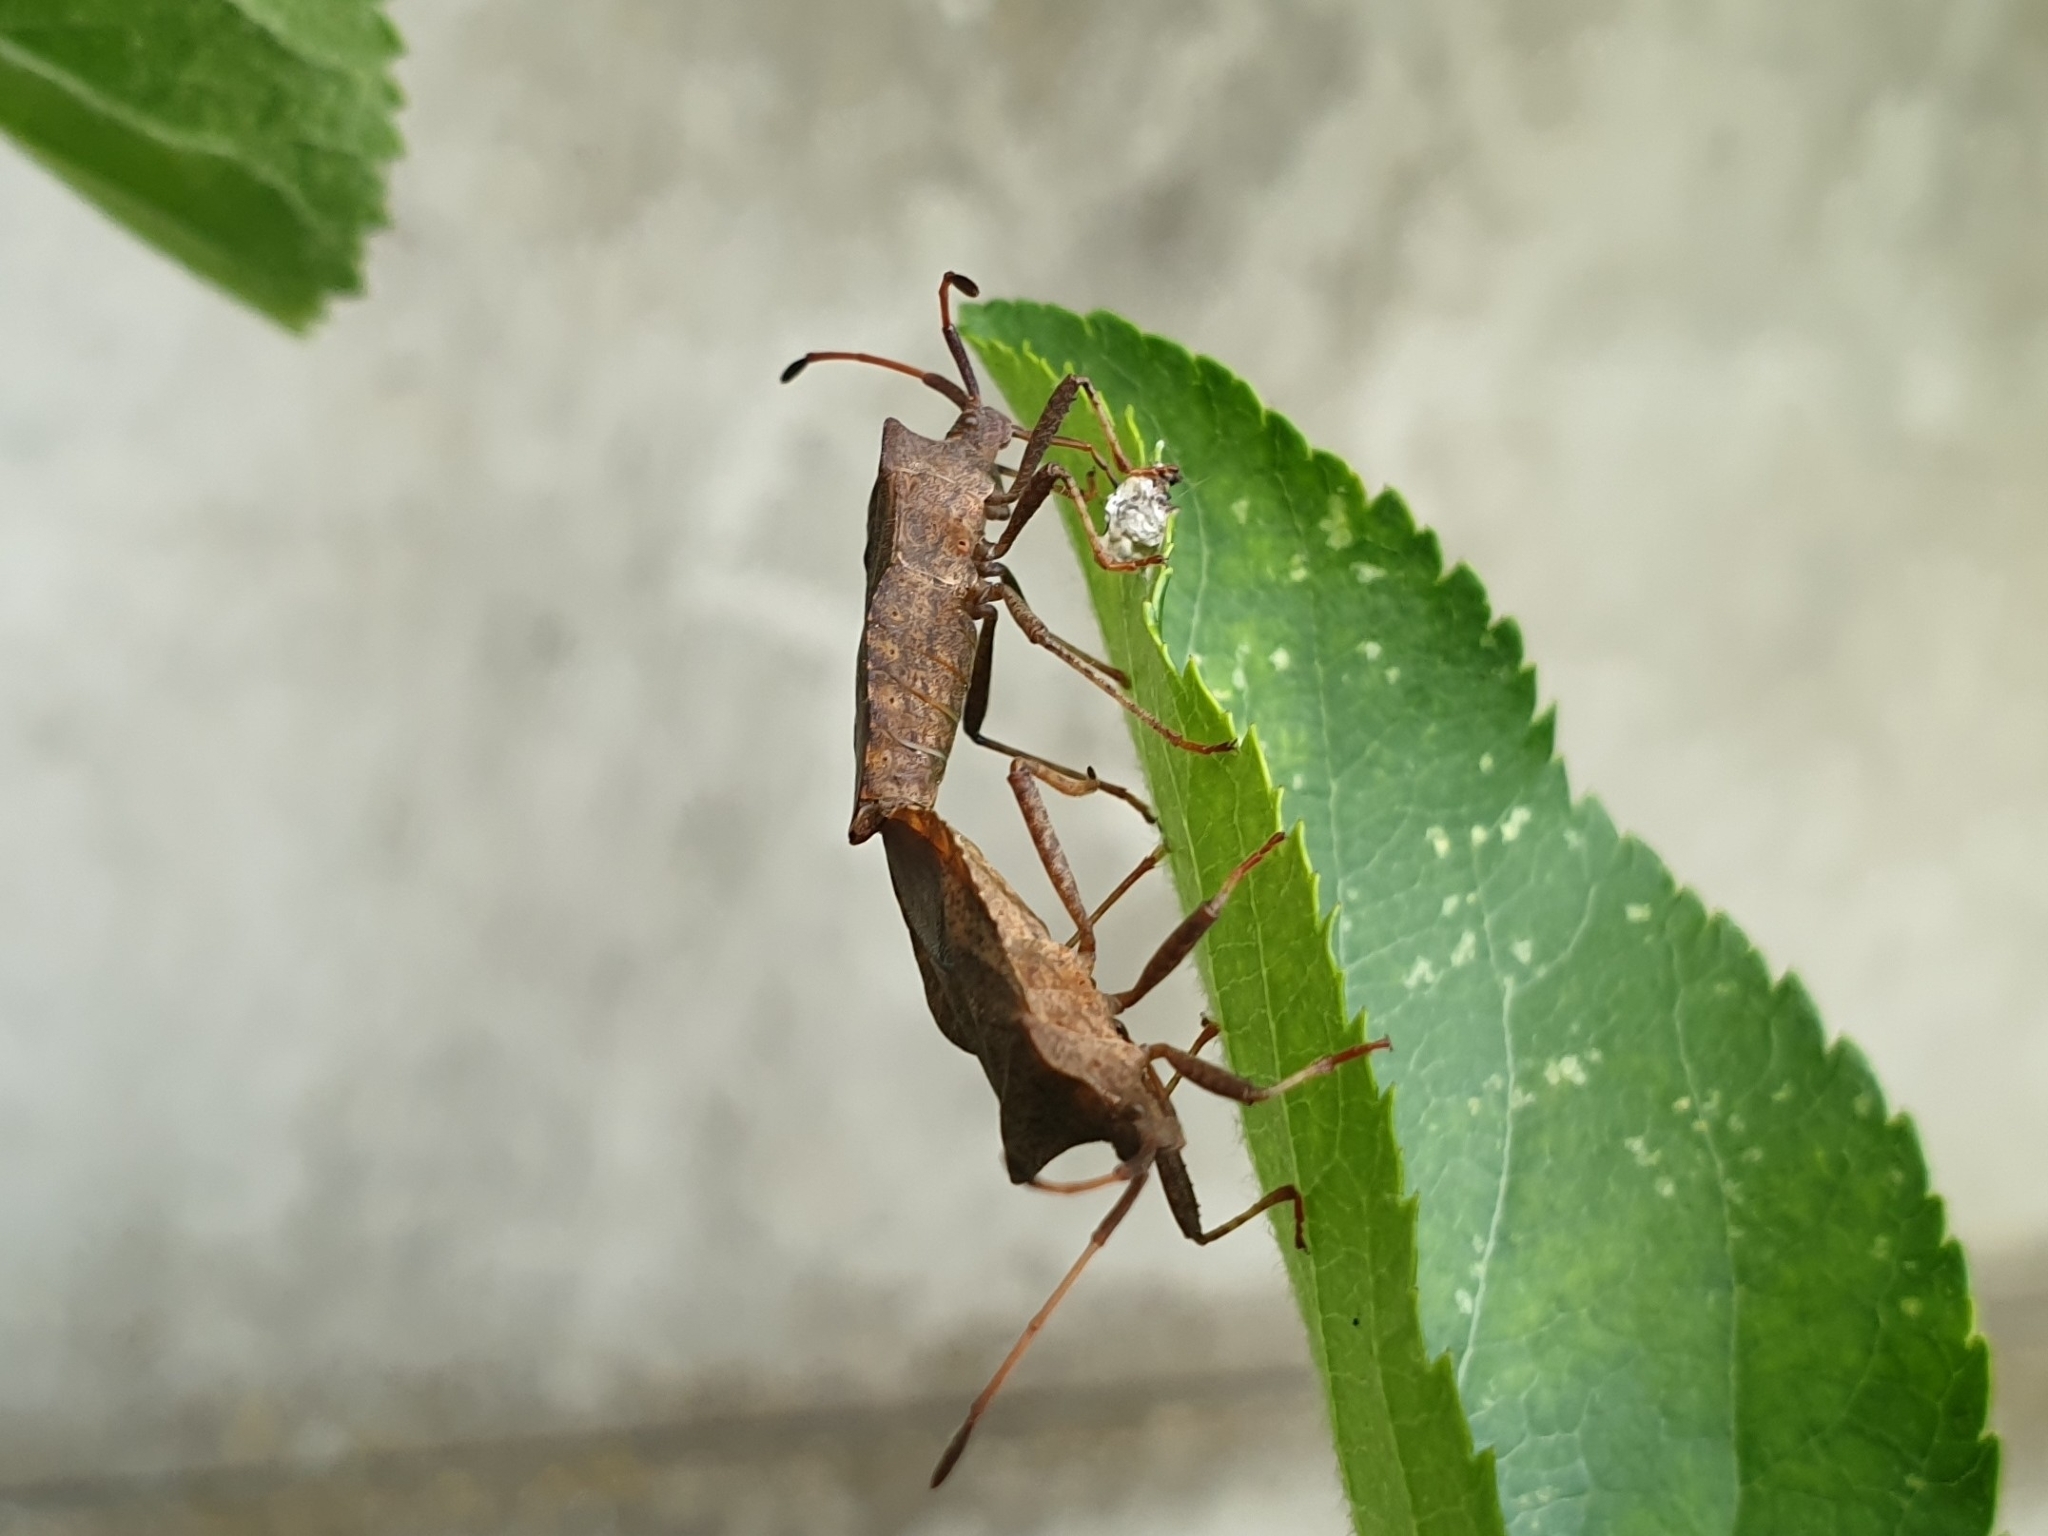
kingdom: Animalia
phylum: Arthropoda
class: Insecta
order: Hemiptera
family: Coreidae
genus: Coreus
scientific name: Coreus marginatus
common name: Dock bug
